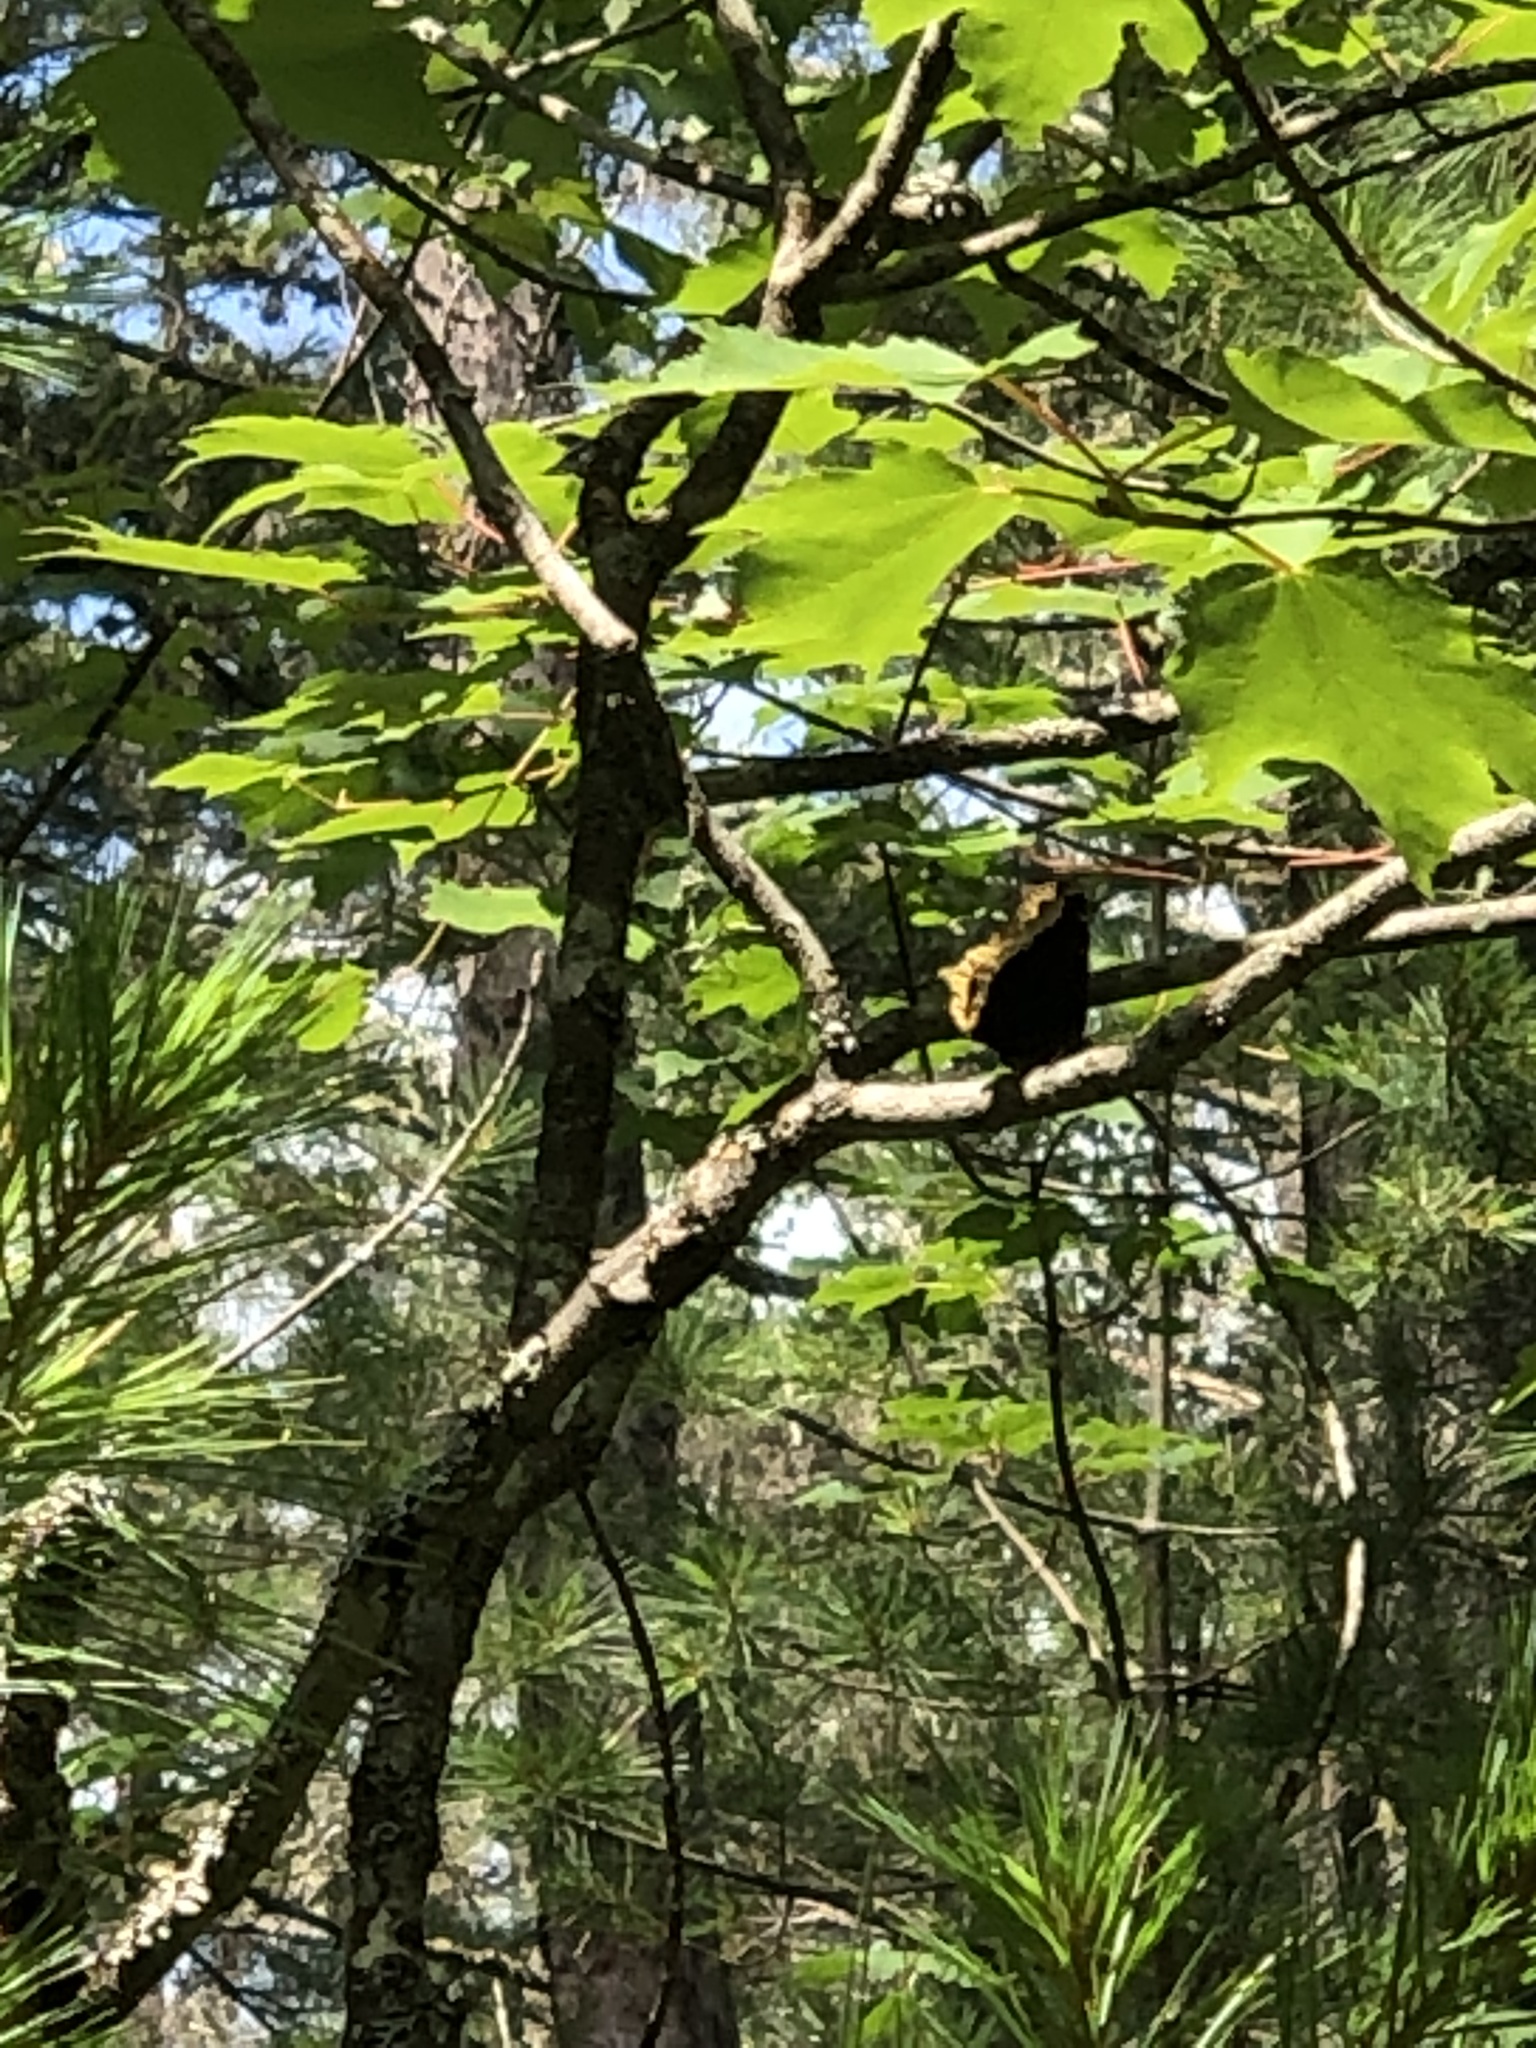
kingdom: Animalia
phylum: Arthropoda
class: Insecta
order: Lepidoptera
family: Nymphalidae
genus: Nymphalis
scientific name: Nymphalis antiopa
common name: Camberwell beauty
